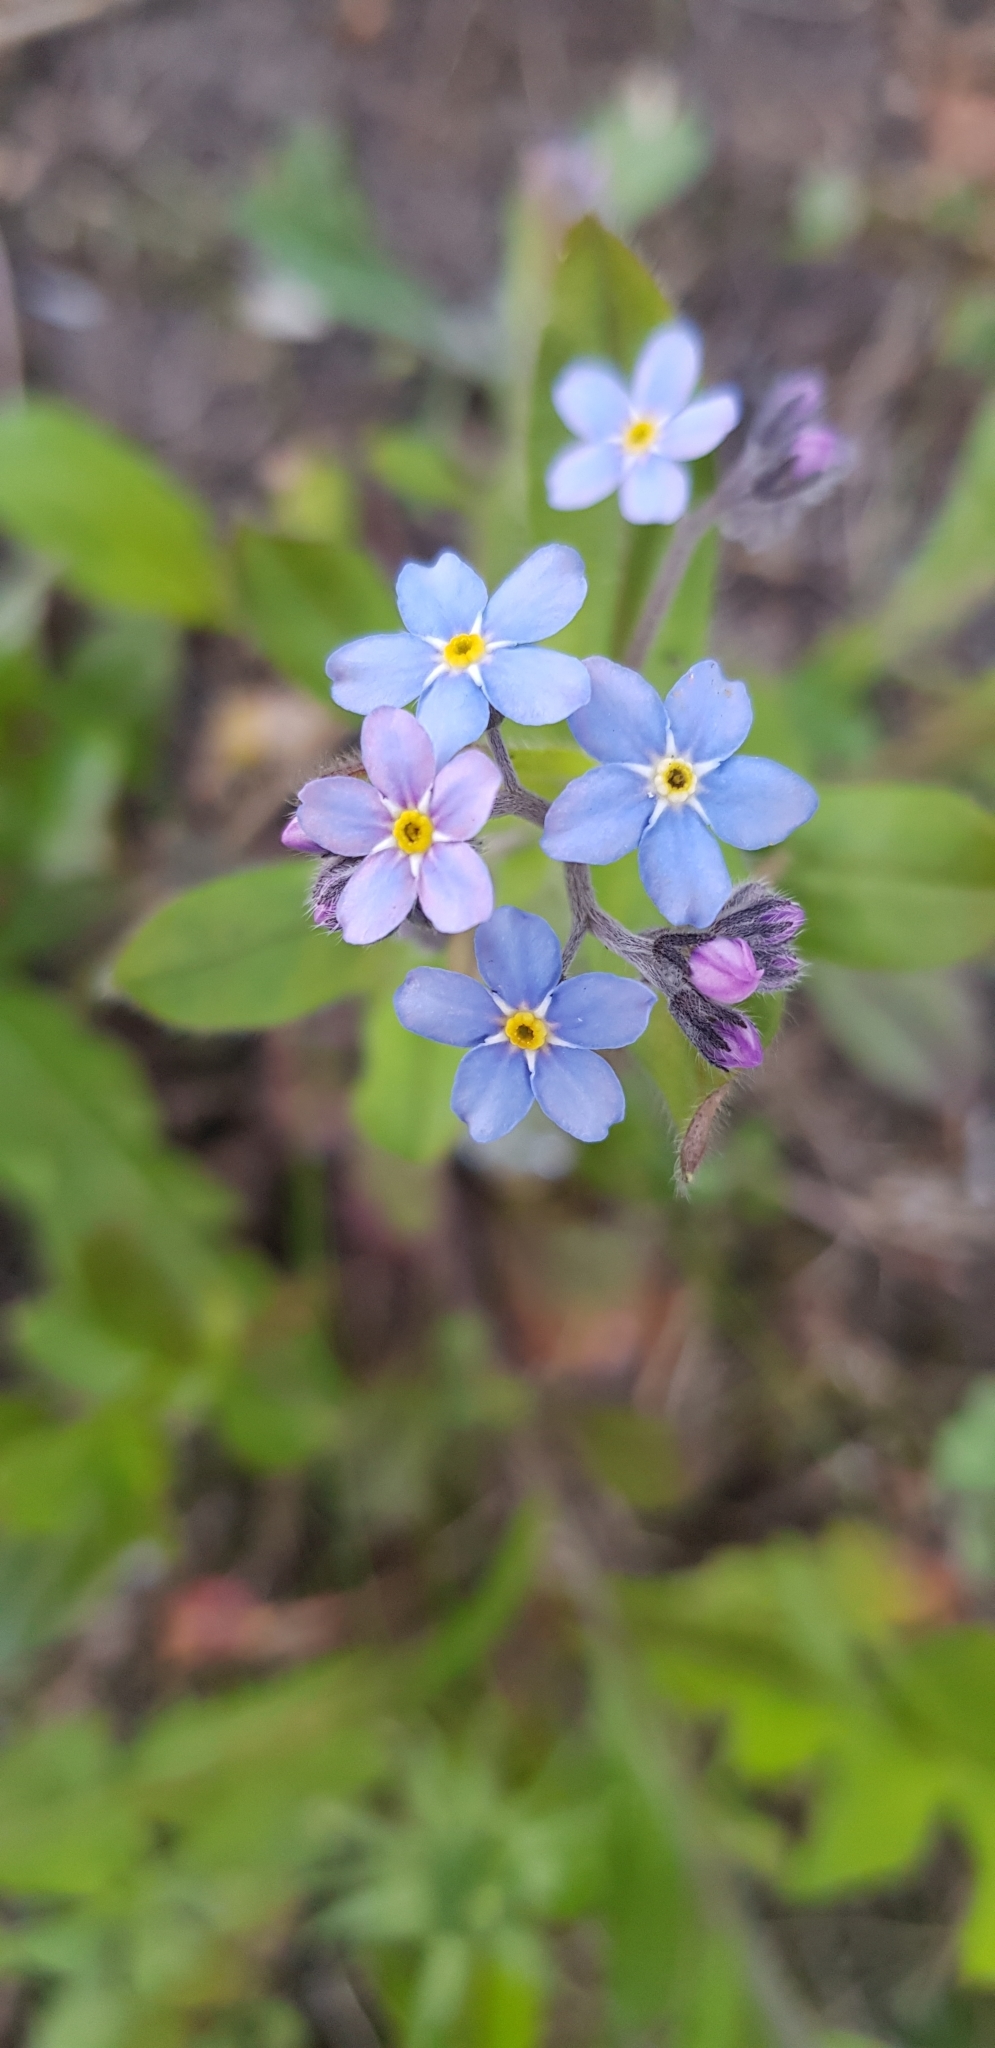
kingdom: Plantae
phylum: Tracheophyta
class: Magnoliopsida
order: Boraginales
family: Boraginaceae
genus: Myosotis
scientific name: Myosotis sylvatica
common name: Wood forget-me-not
